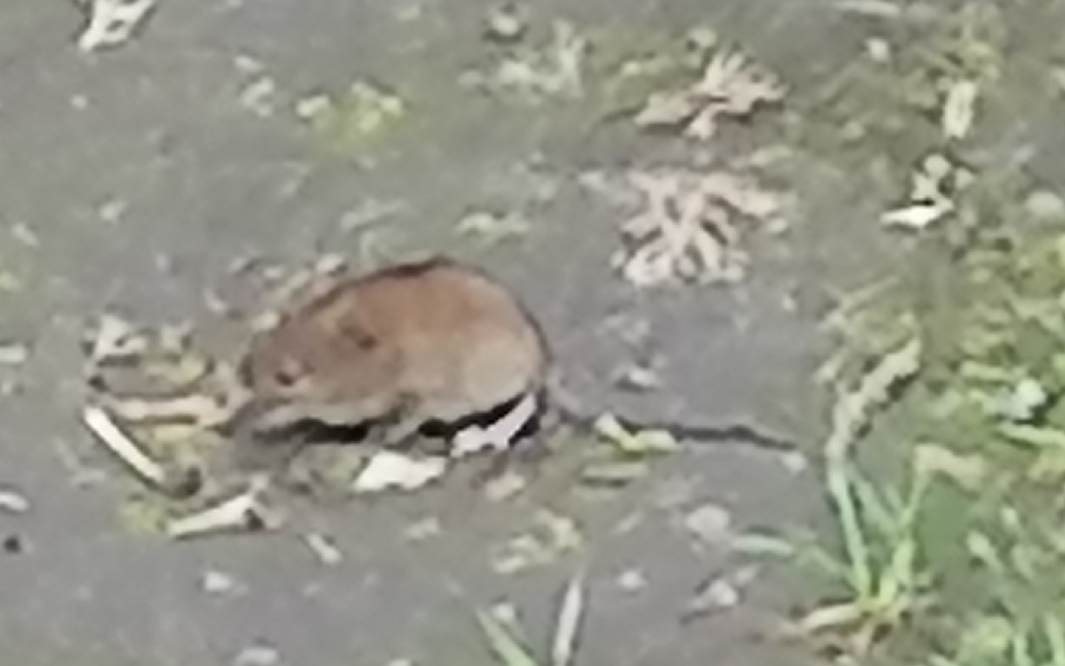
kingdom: Animalia
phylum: Chordata
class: Mammalia
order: Rodentia
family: Muridae
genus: Apodemus
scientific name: Apodemus agrarius
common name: Striped field mouse
